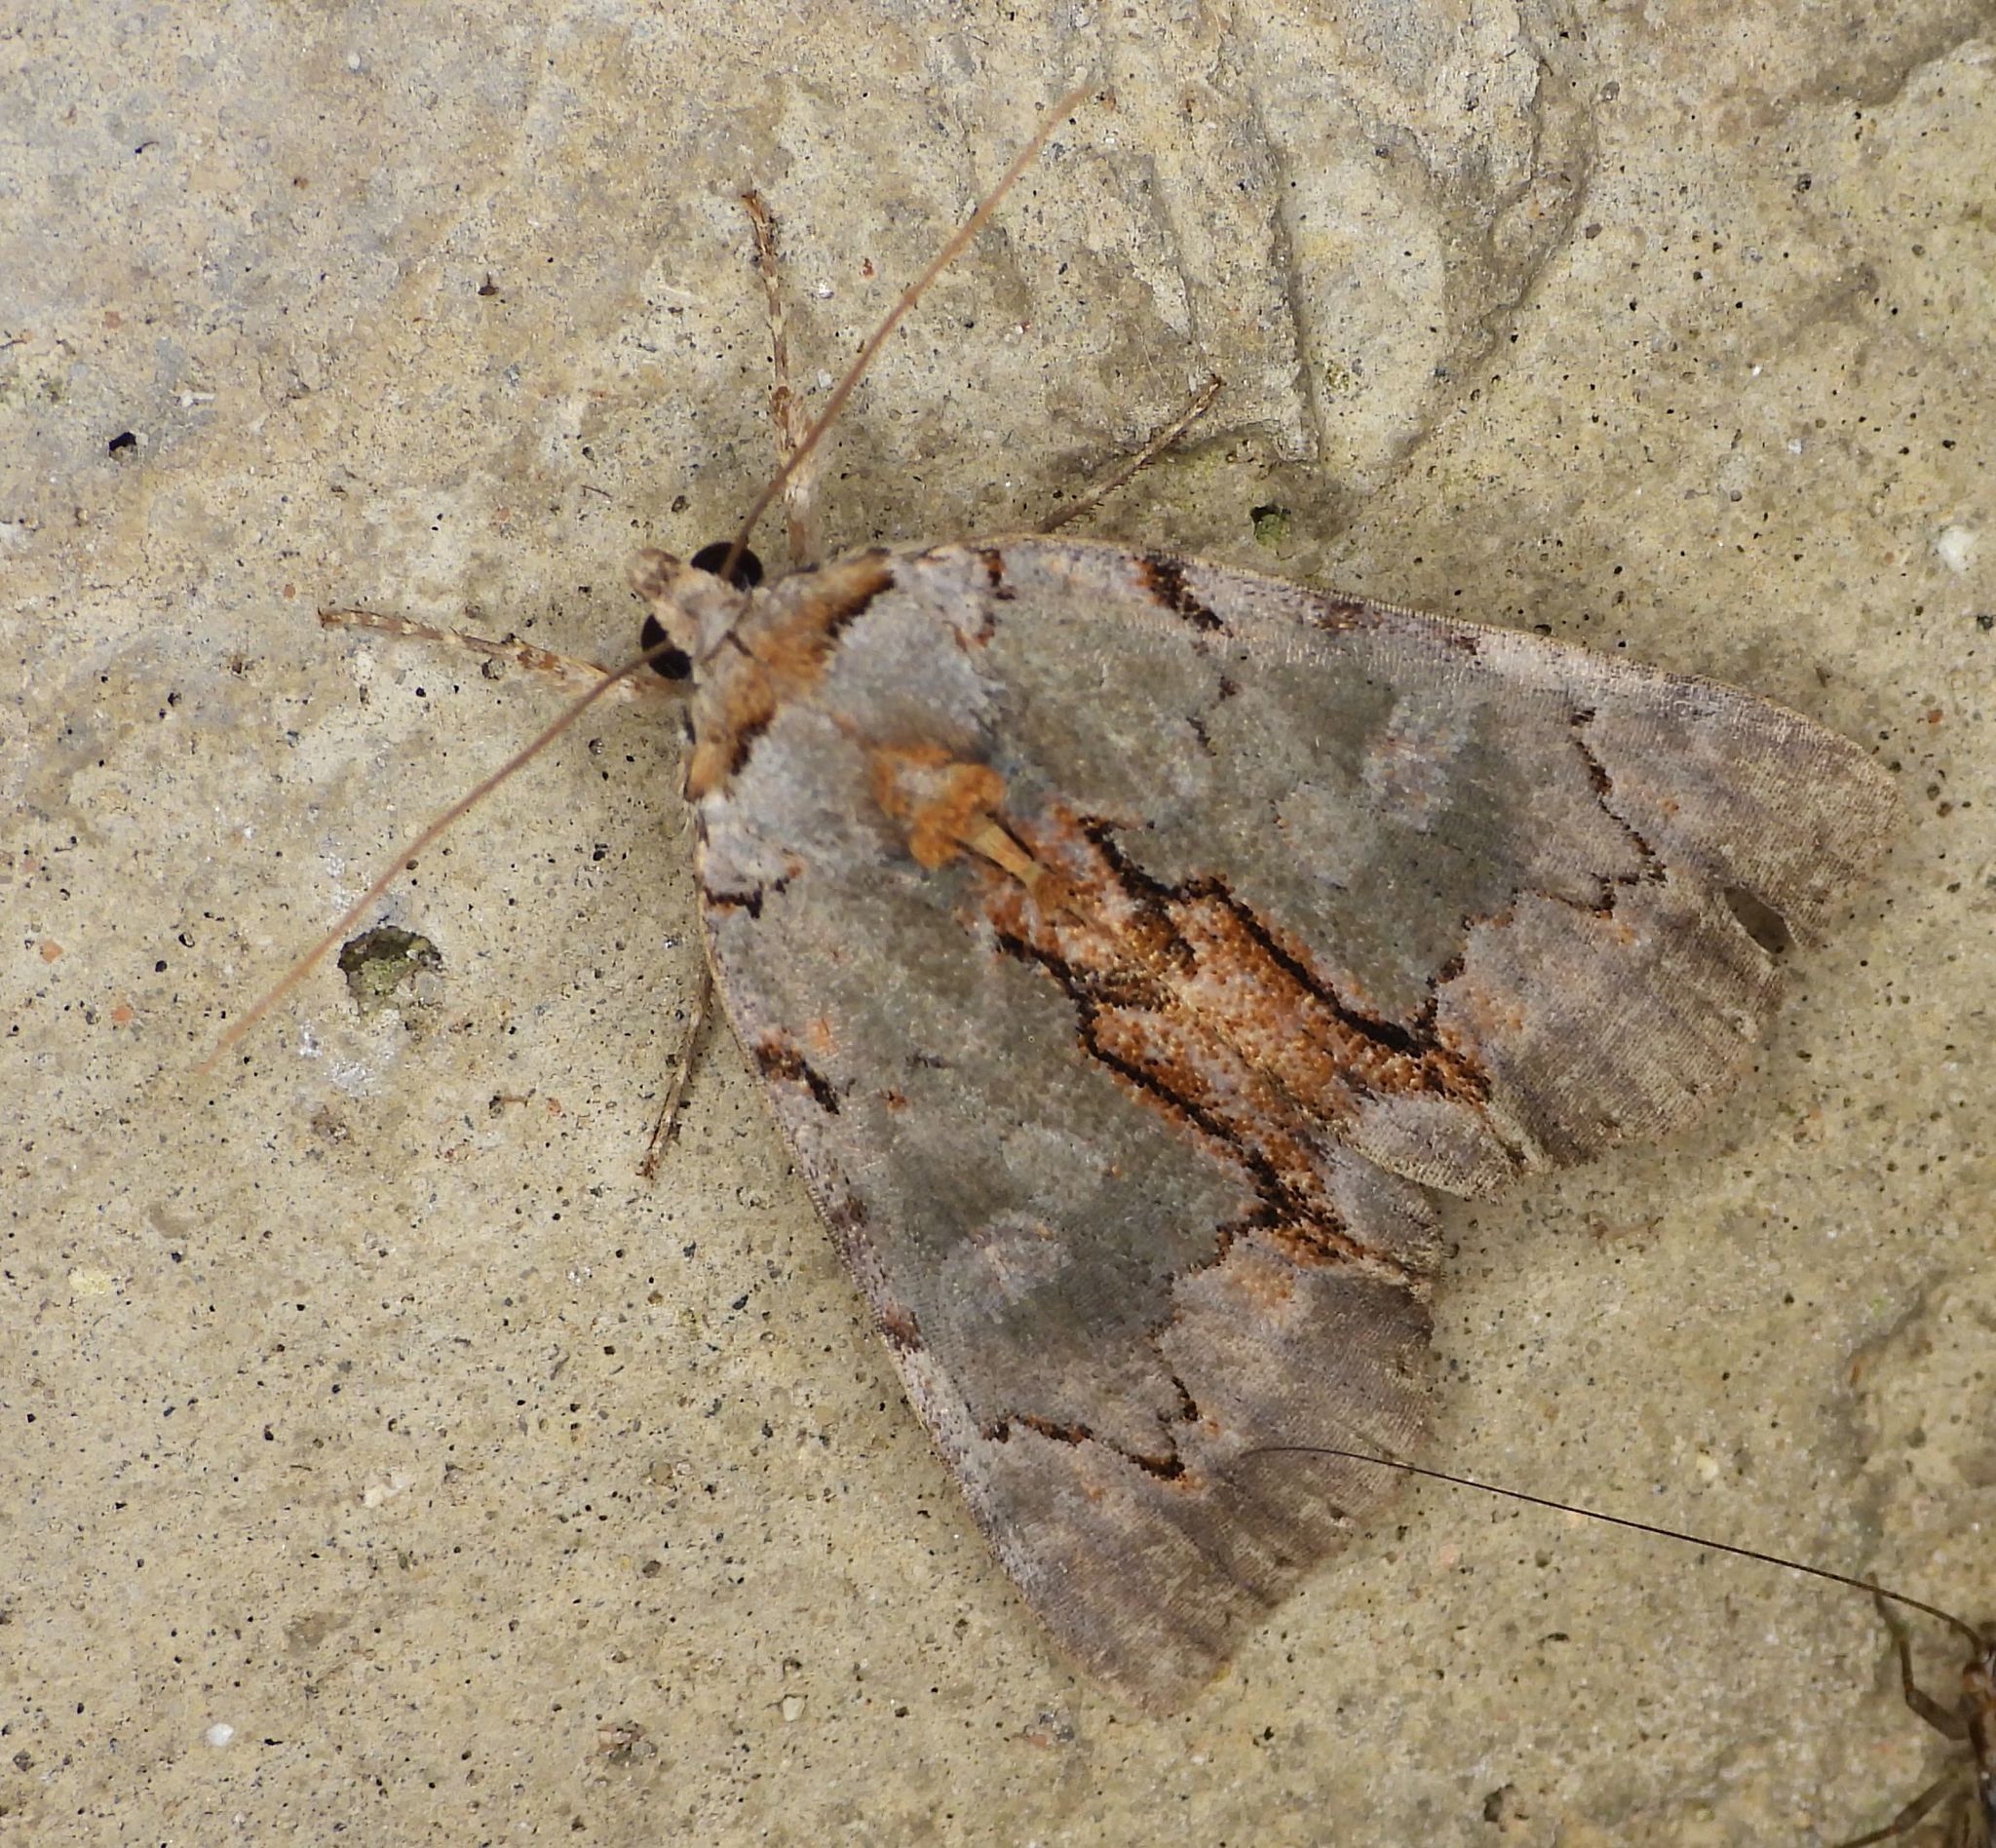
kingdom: Animalia
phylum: Arthropoda
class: Insecta
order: Lepidoptera
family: Erebidae
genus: Catocala
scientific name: Catocala grynea
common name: Woody underwing
